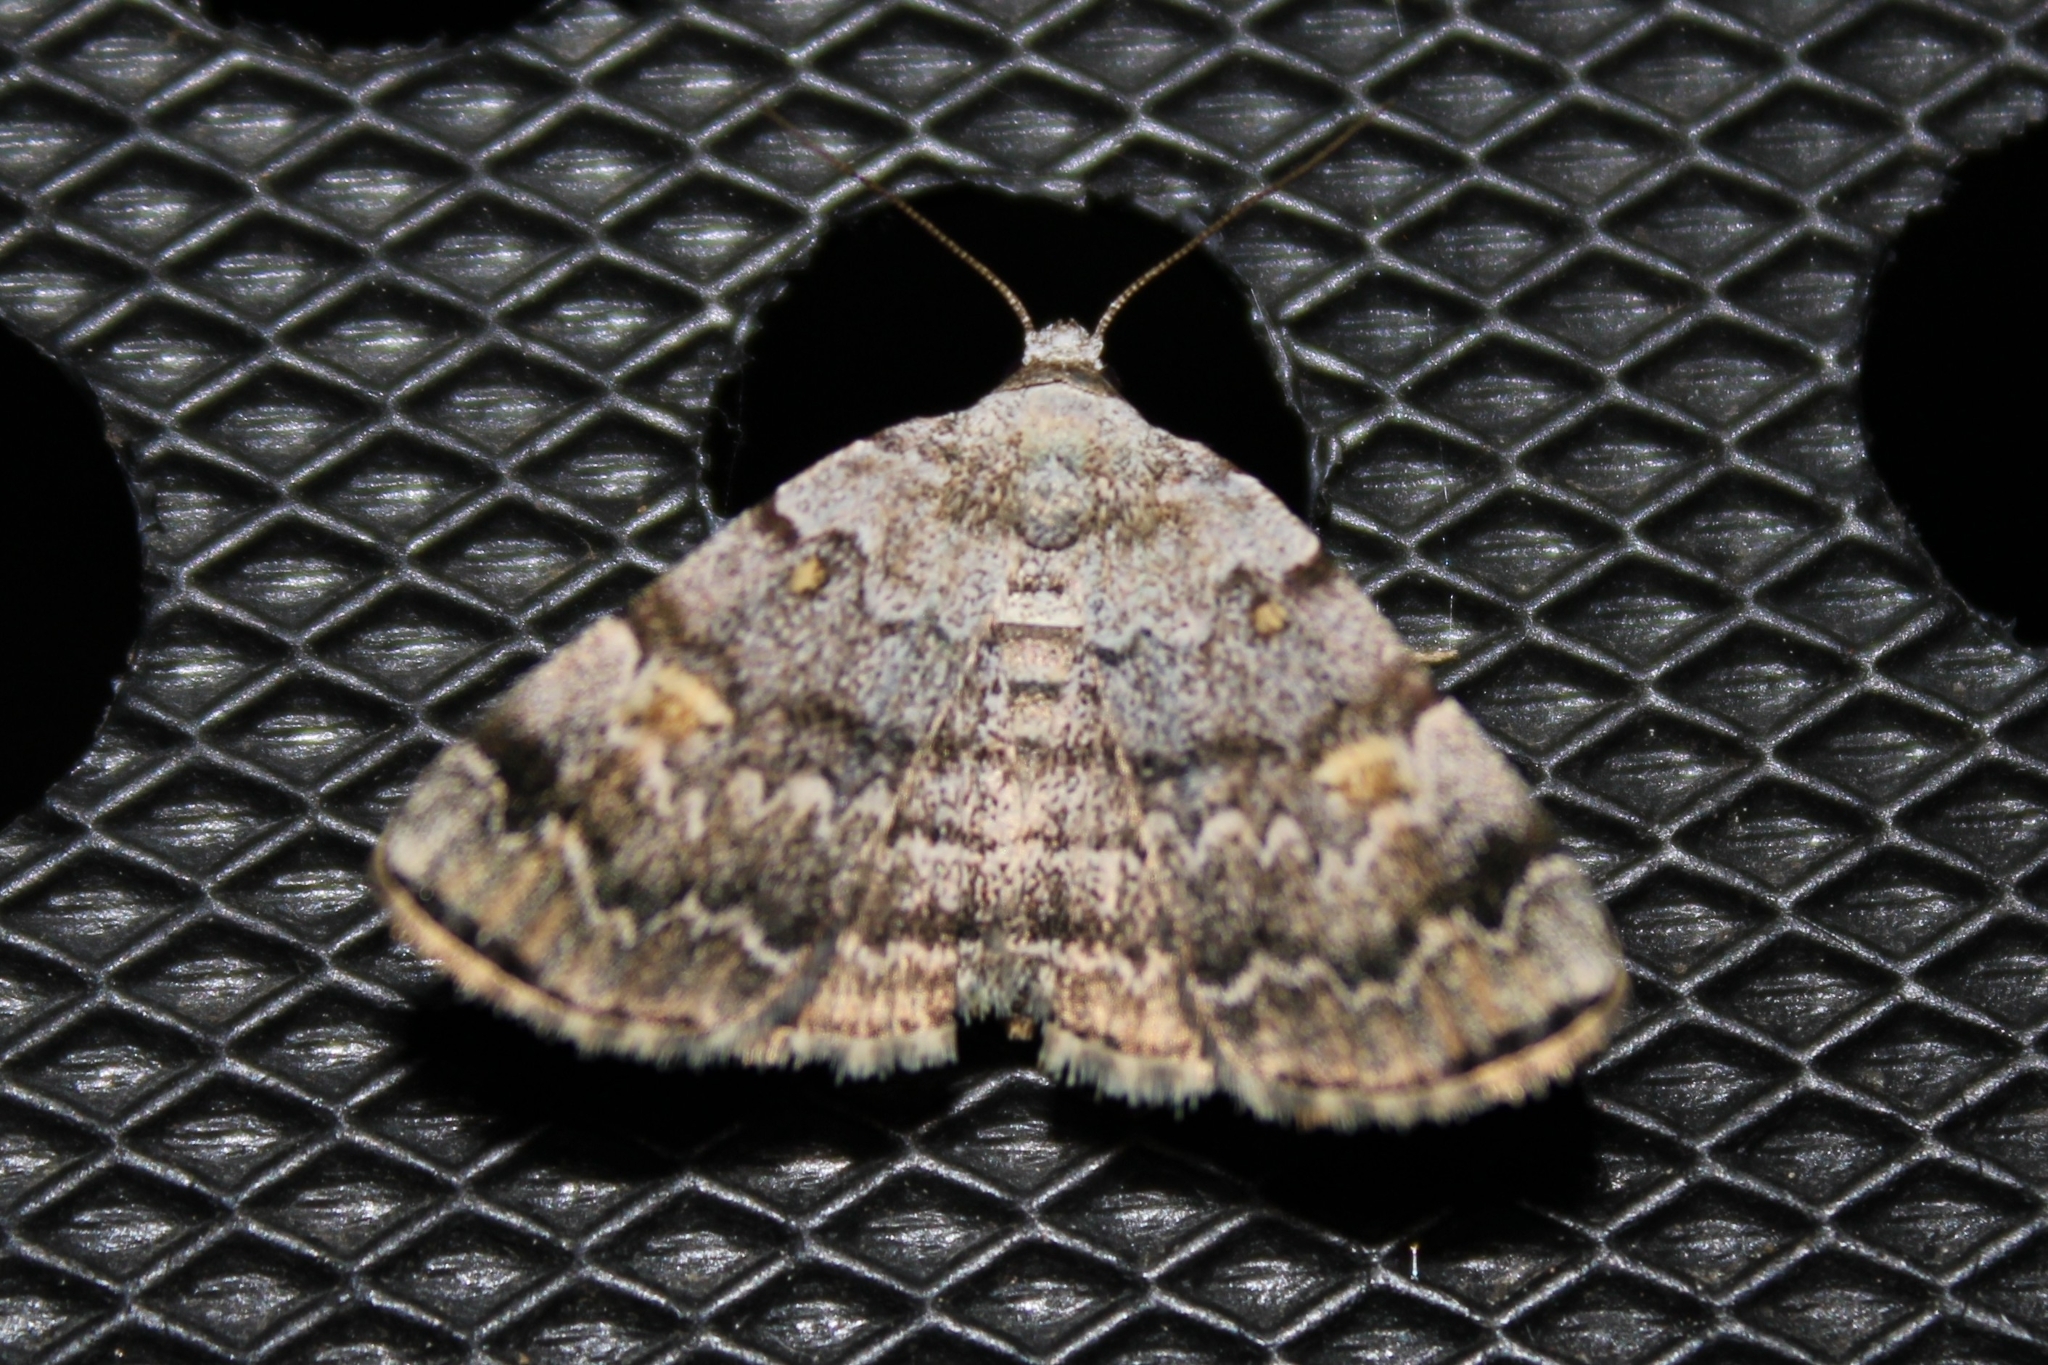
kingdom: Animalia
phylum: Arthropoda
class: Insecta
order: Lepidoptera
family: Erebidae
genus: Idia
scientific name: Idia americalis
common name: American idia moth
